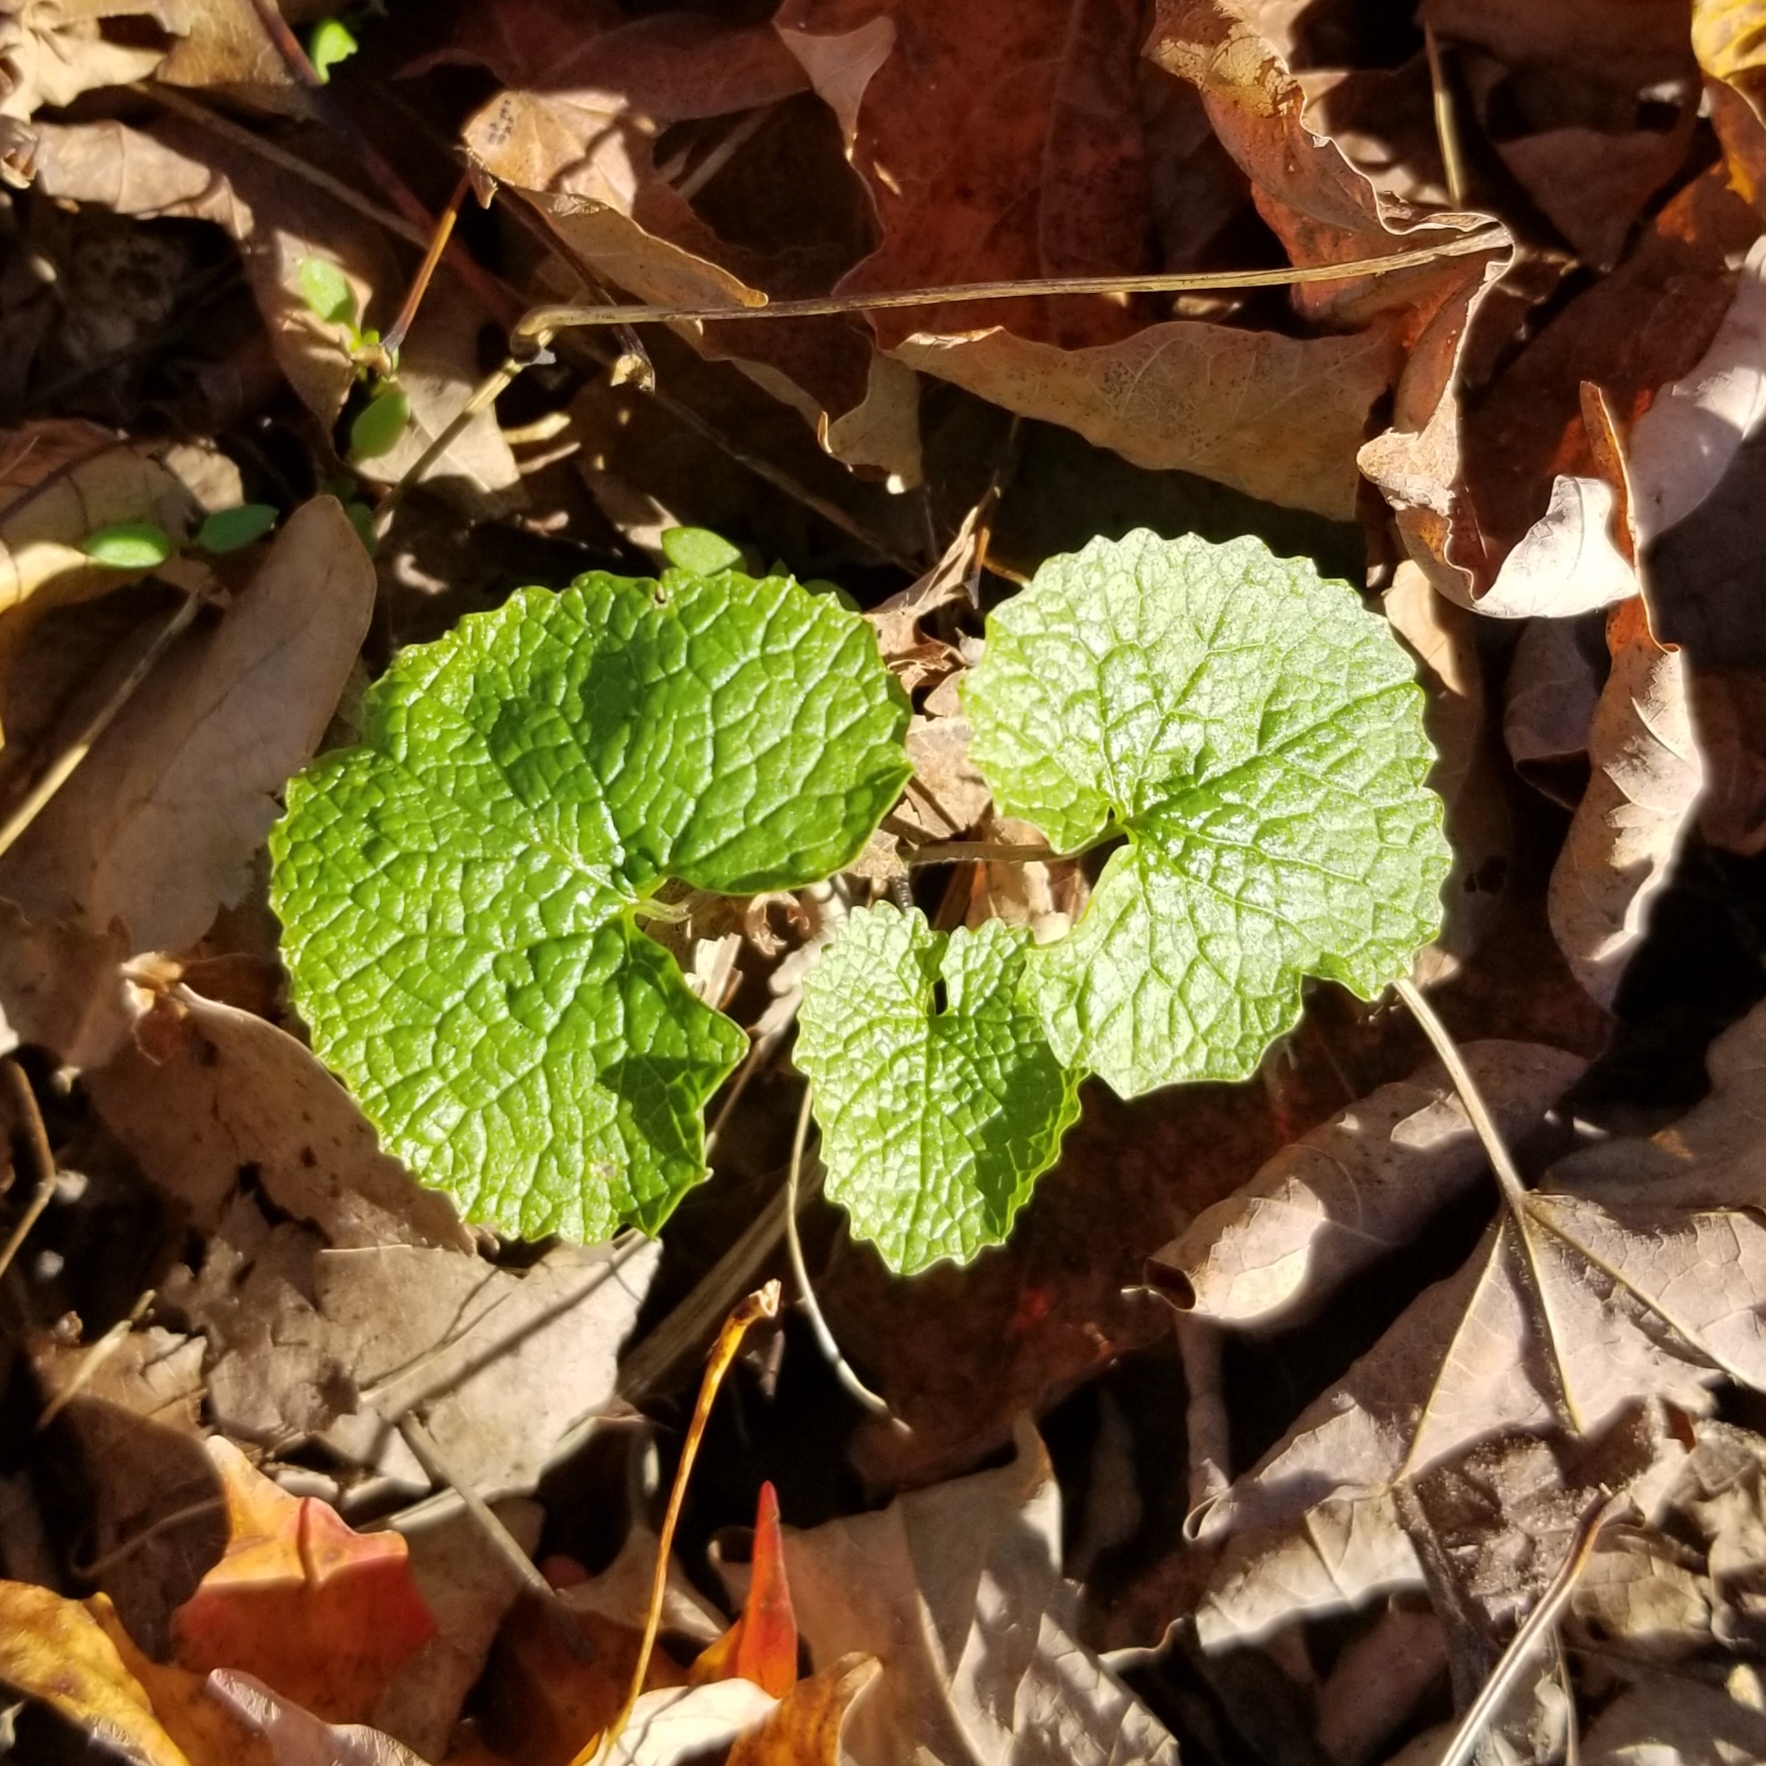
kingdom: Plantae
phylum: Tracheophyta
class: Magnoliopsida
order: Brassicales
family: Brassicaceae
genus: Alliaria
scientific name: Alliaria petiolata
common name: Garlic mustard
